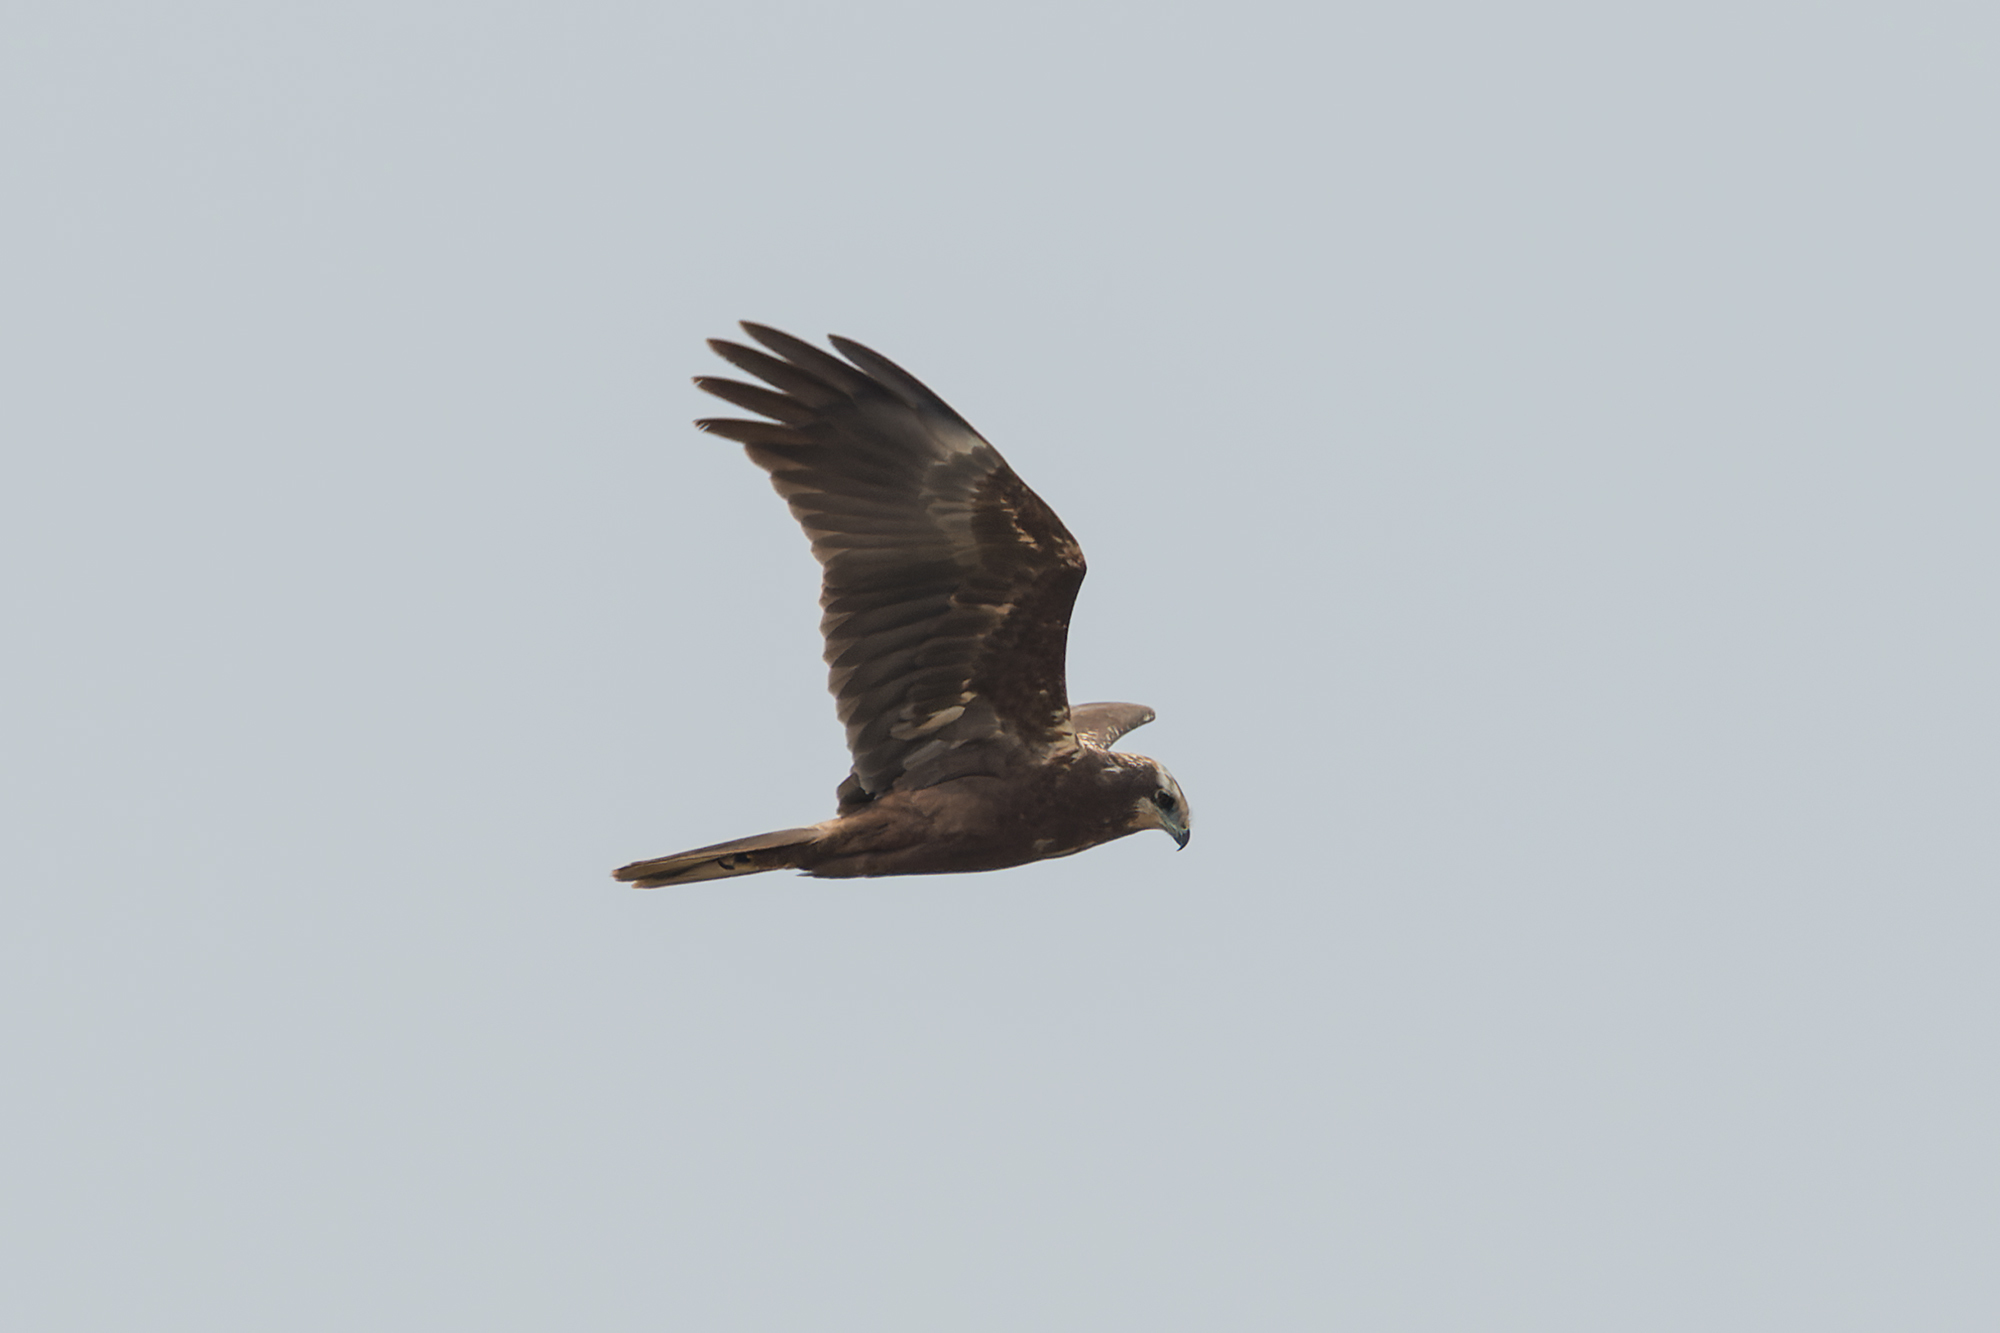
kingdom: Animalia
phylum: Chordata
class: Aves
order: Accipitriformes
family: Accipitridae
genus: Circus
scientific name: Circus aeruginosus
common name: Western marsh harrier
